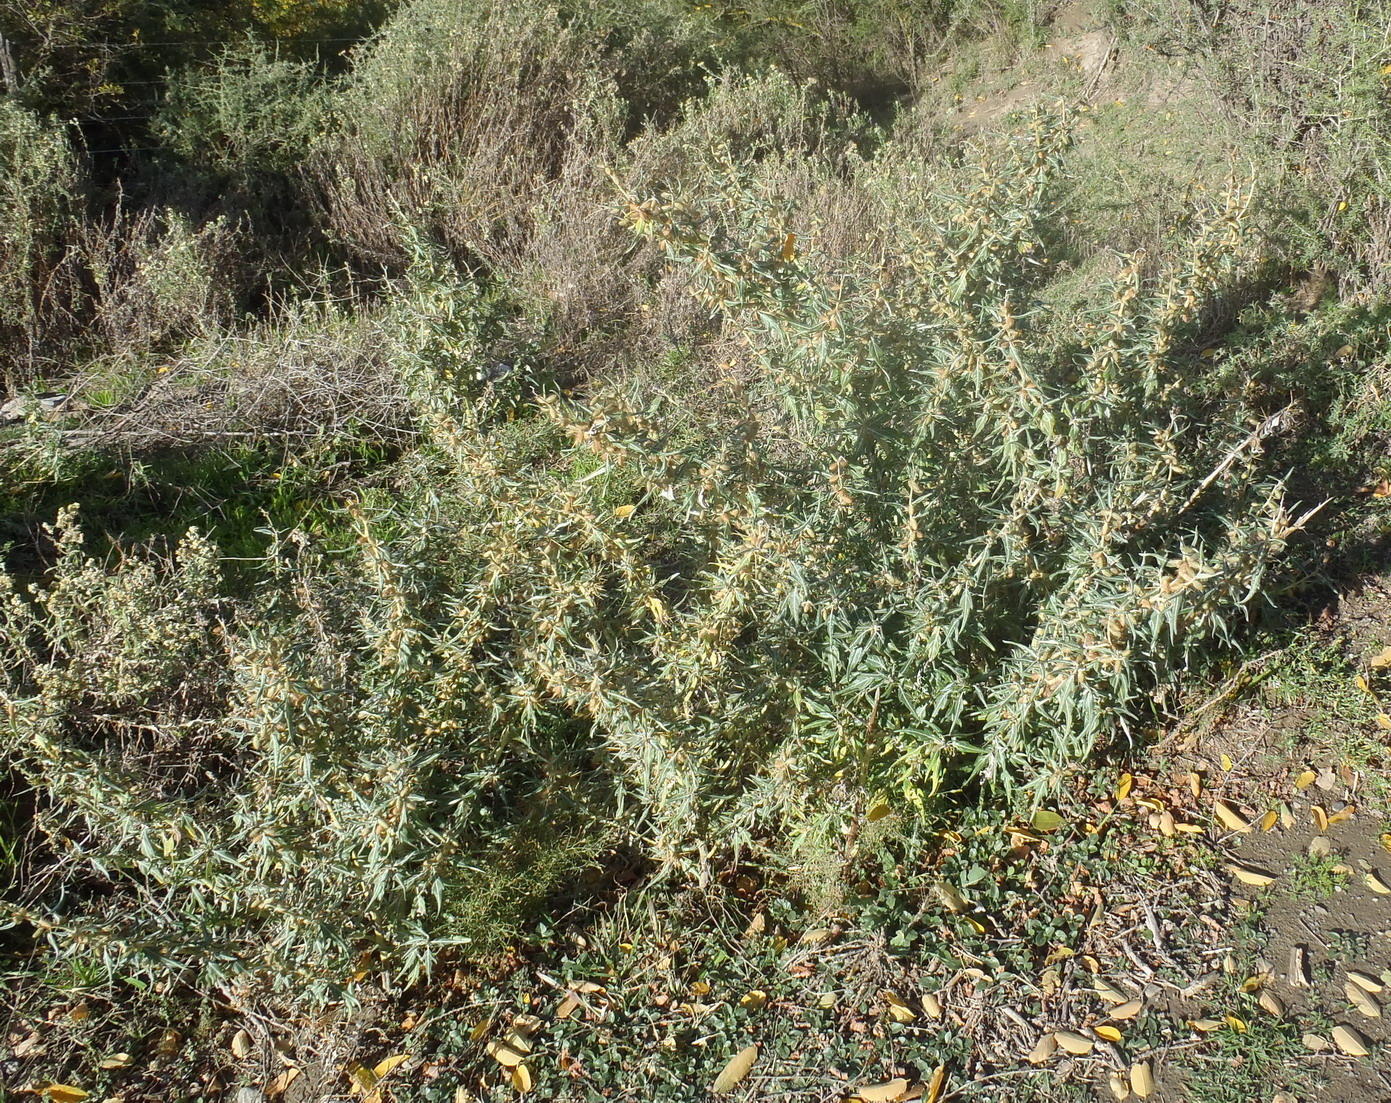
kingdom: Plantae
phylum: Tracheophyta
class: Magnoliopsida
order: Asterales
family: Asteraceae
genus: Xanthium
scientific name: Xanthium spinosum
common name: Spiny cocklebur
